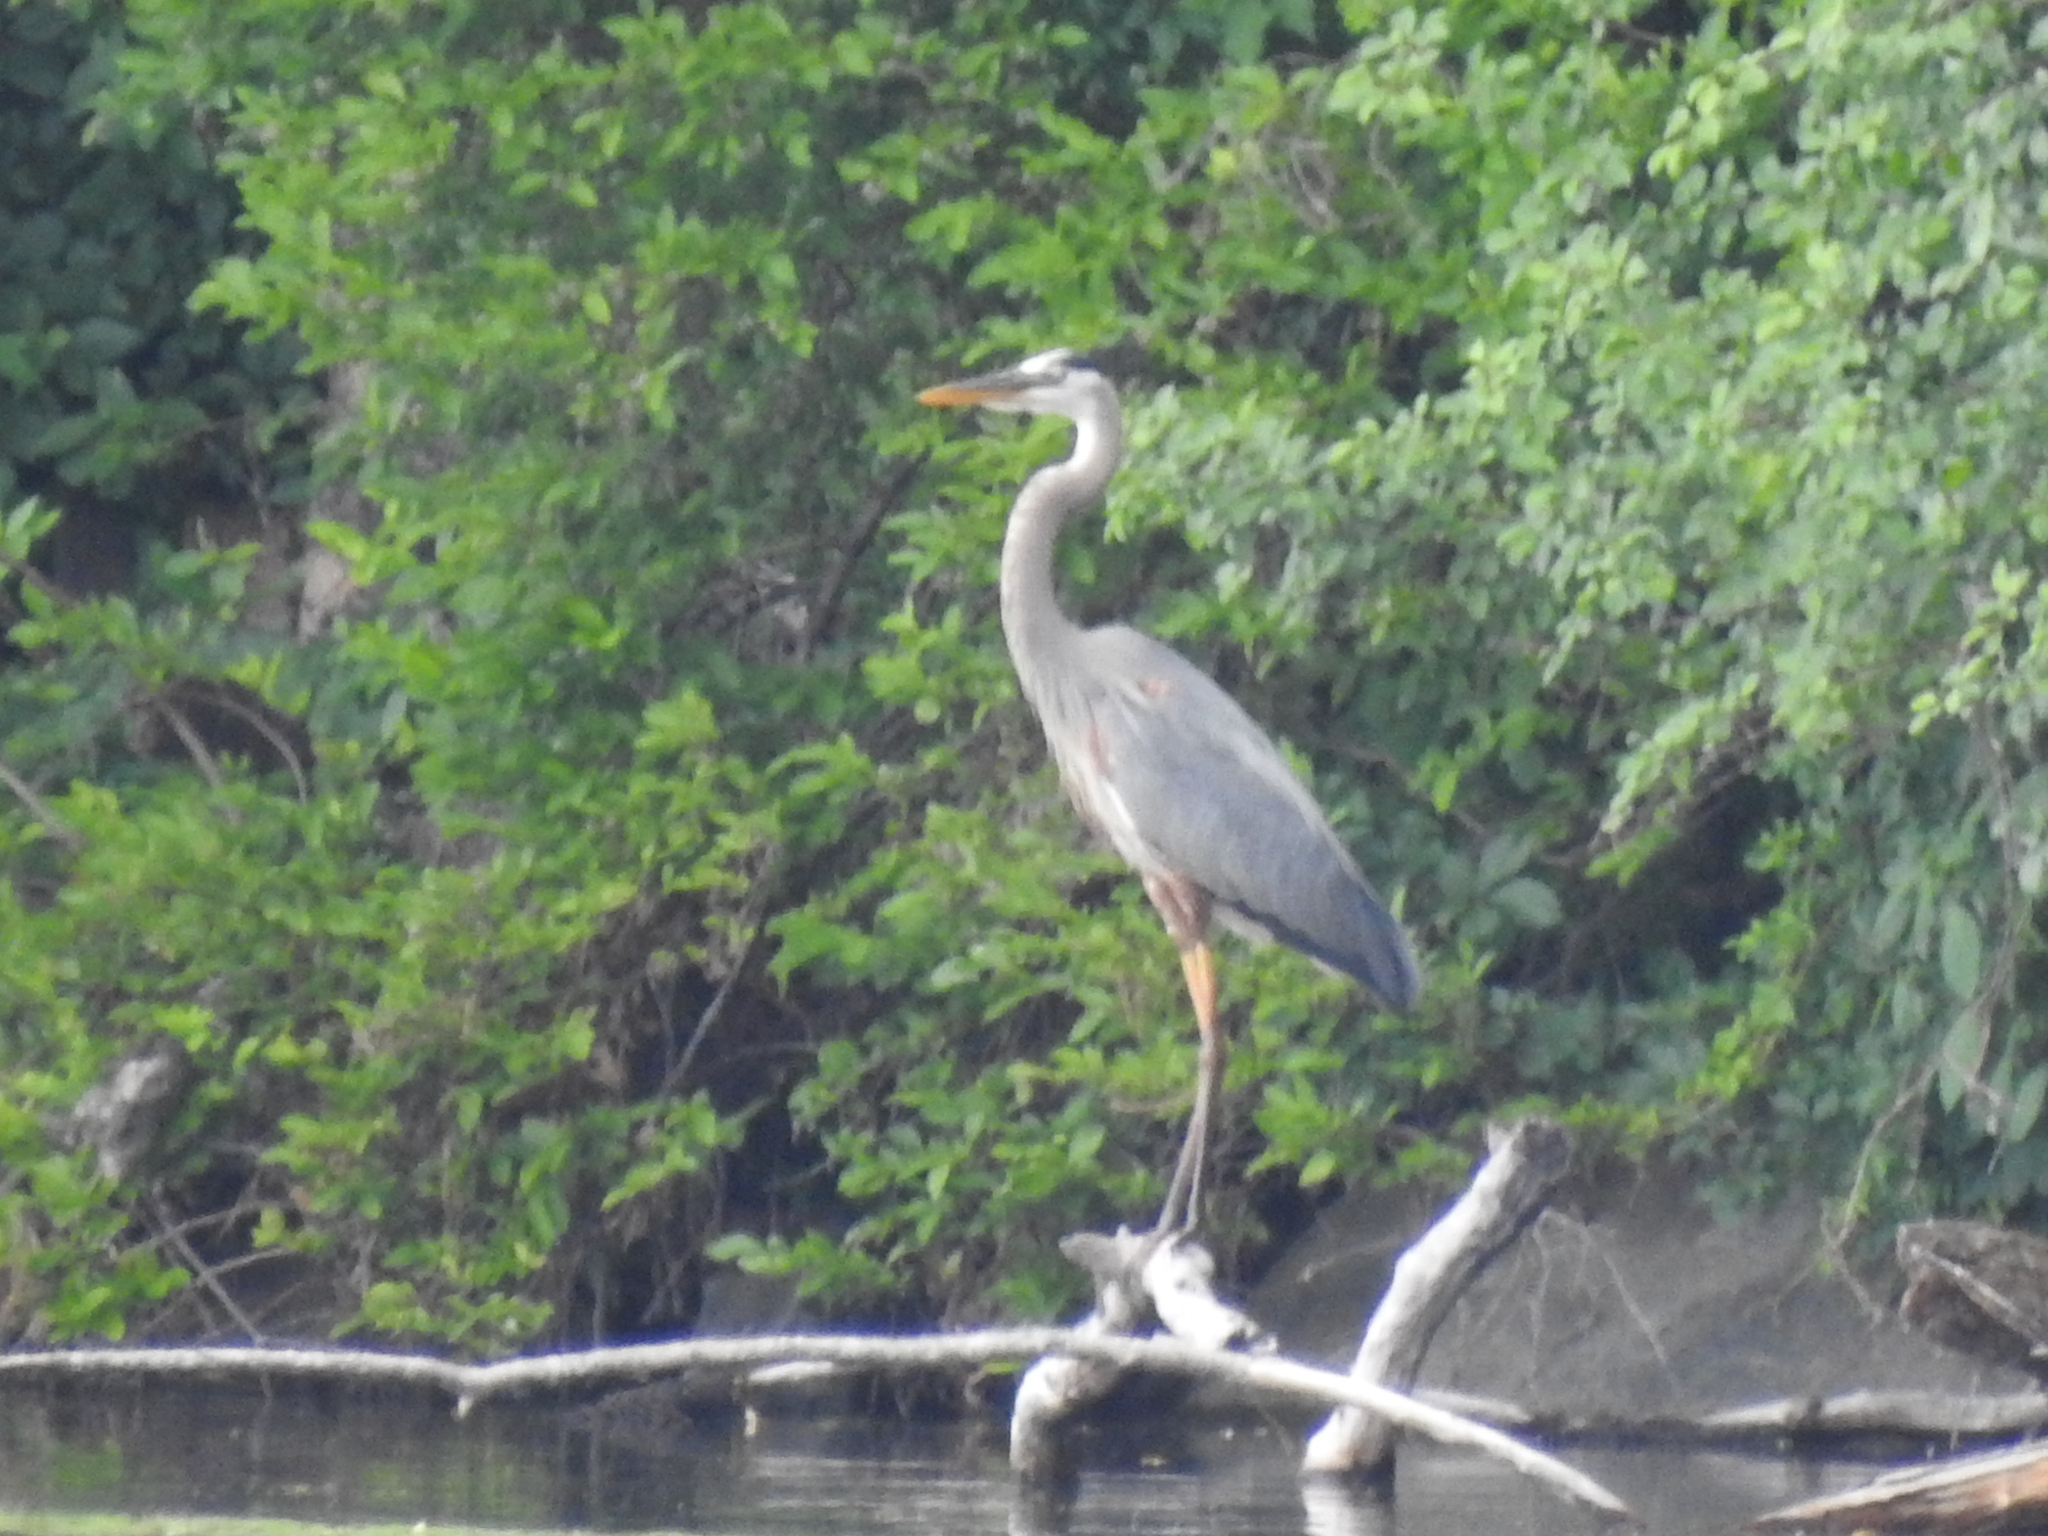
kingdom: Animalia
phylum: Chordata
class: Aves
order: Pelecaniformes
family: Ardeidae
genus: Ardea
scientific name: Ardea herodias
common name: Great blue heron
